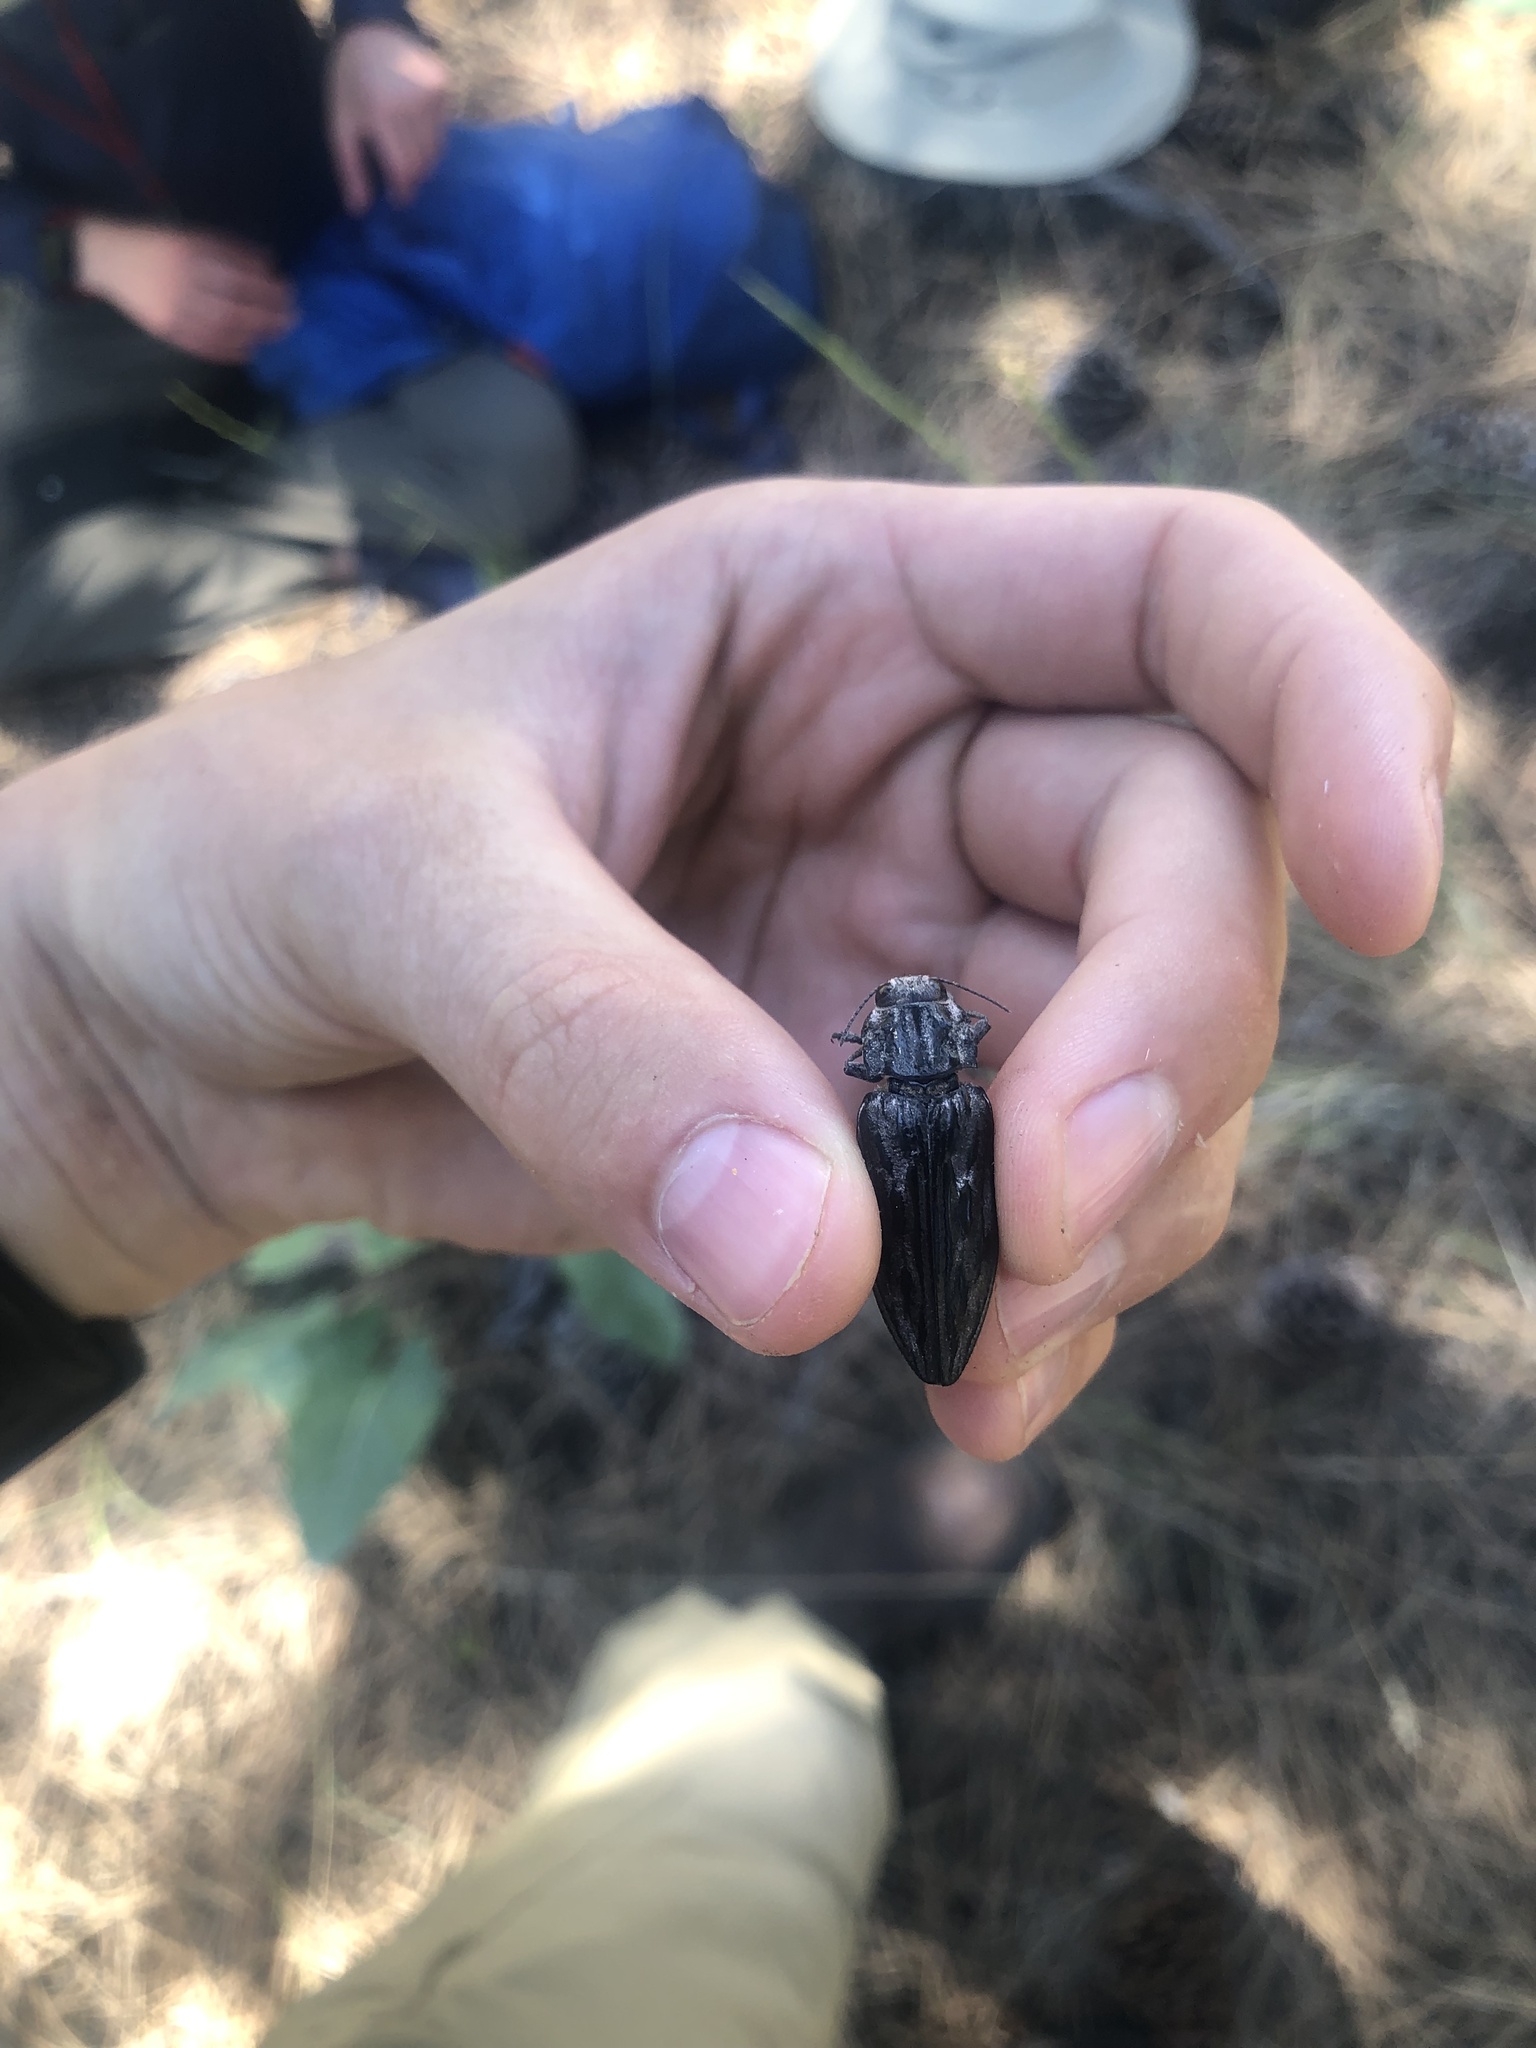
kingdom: Animalia
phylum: Arthropoda
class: Insecta
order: Coleoptera
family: Buprestidae
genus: Chalcophora
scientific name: Chalcophora angulicollis
